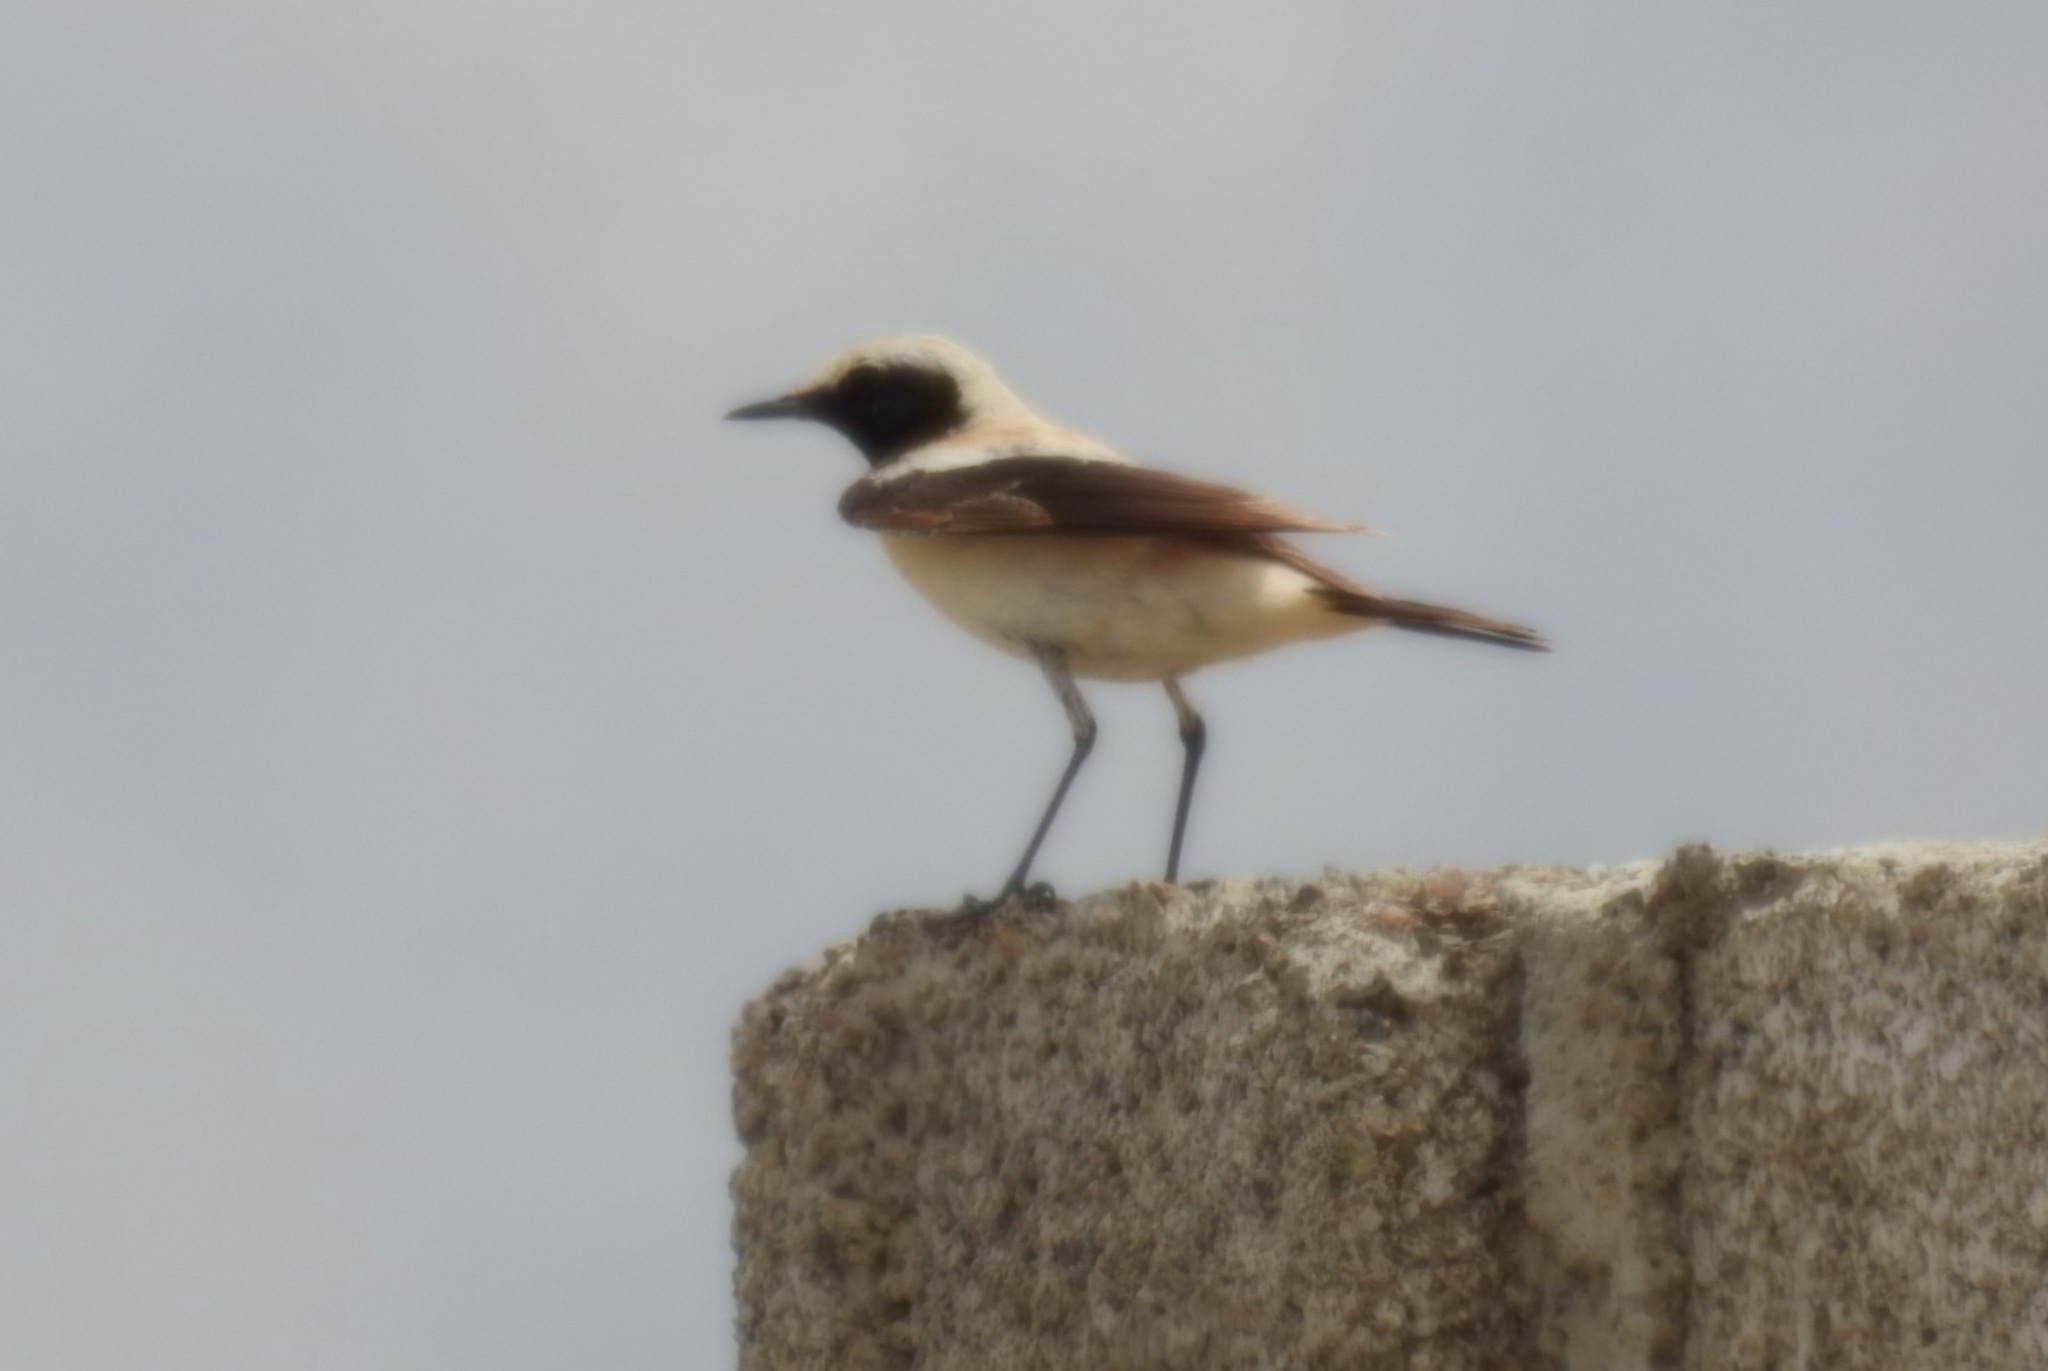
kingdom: Animalia
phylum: Chordata
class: Aves
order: Passeriformes
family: Muscicapidae
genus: Oenanthe
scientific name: Oenanthe deserti
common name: Desert wheatear
